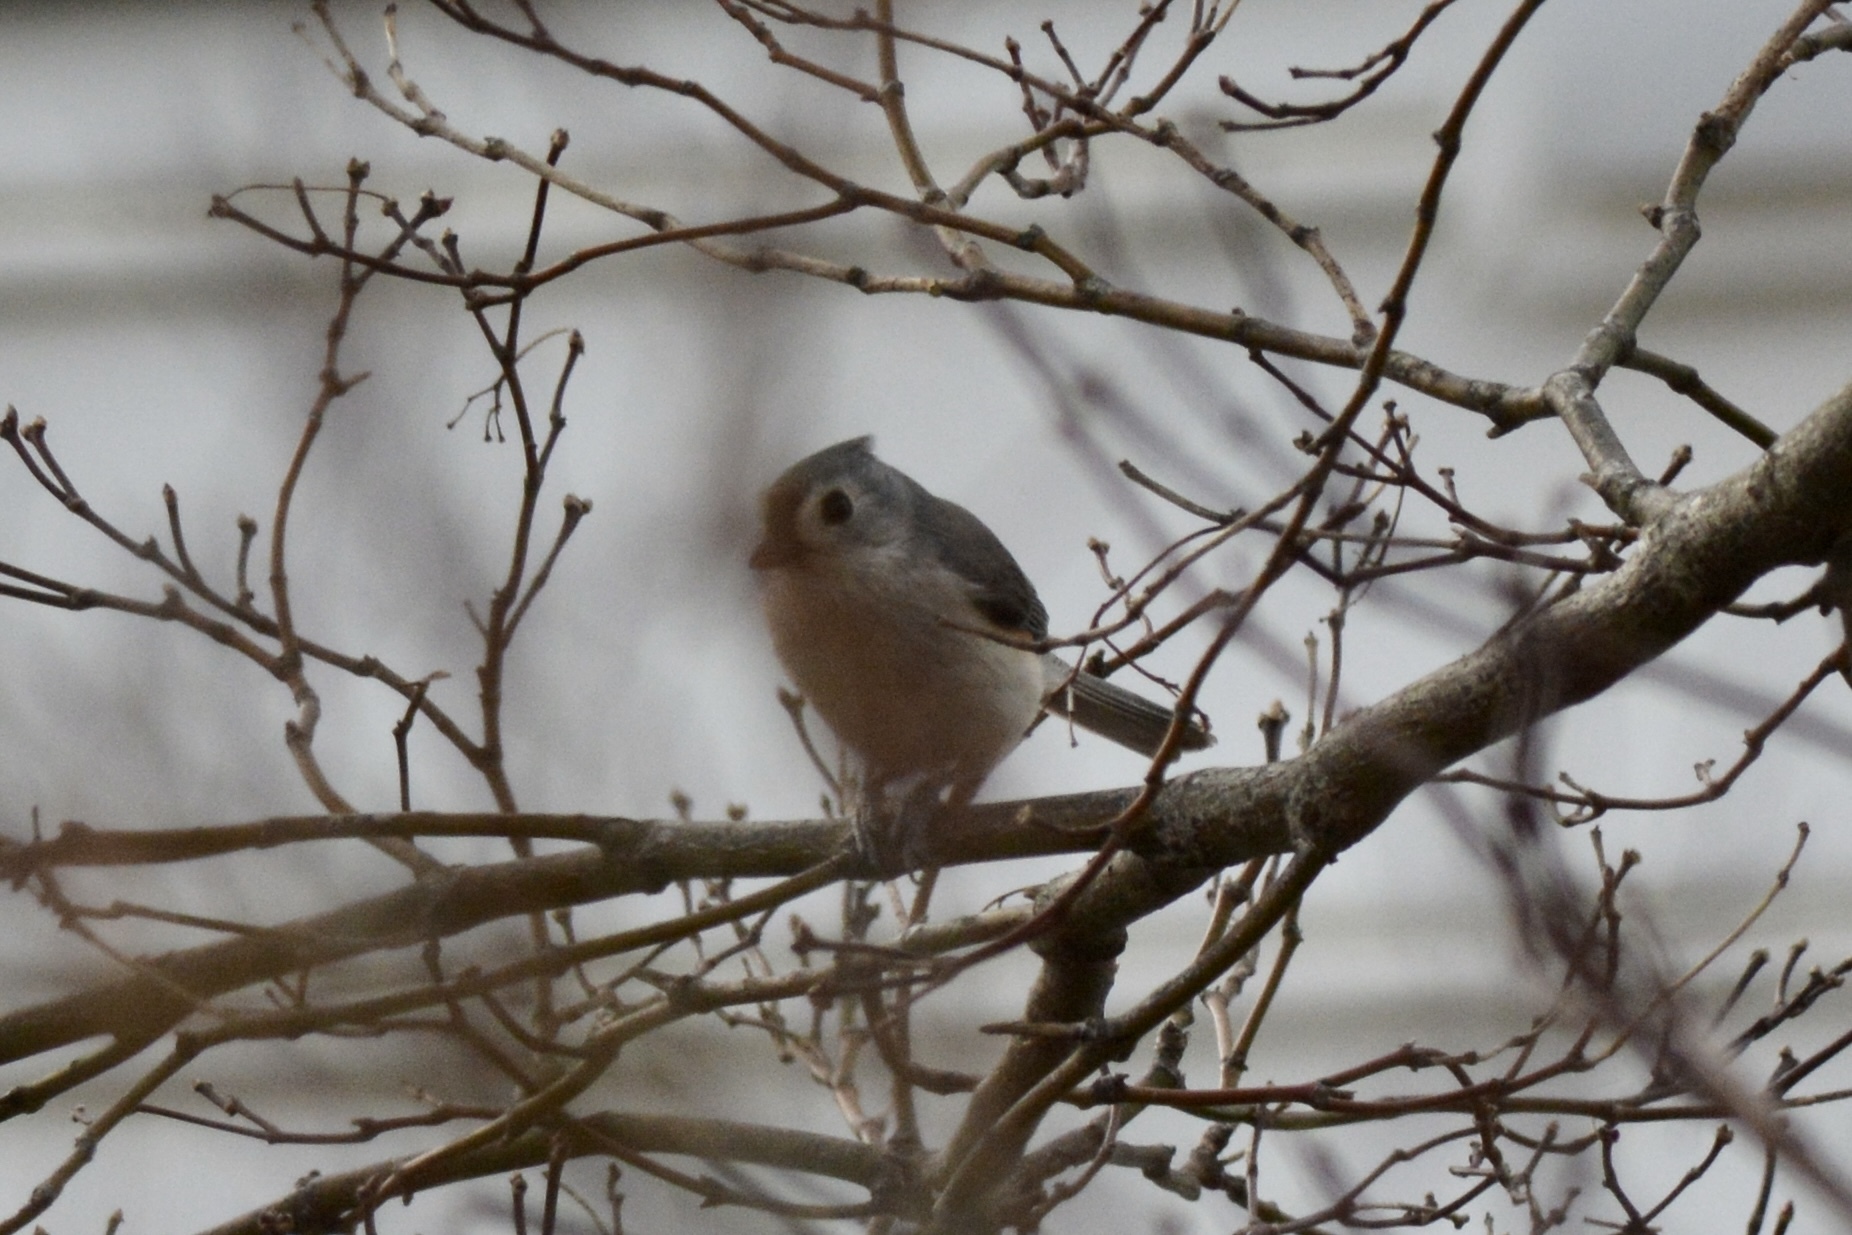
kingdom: Animalia
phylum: Chordata
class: Aves
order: Passeriformes
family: Paridae
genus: Baeolophus
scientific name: Baeolophus bicolor
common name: Tufted titmouse
